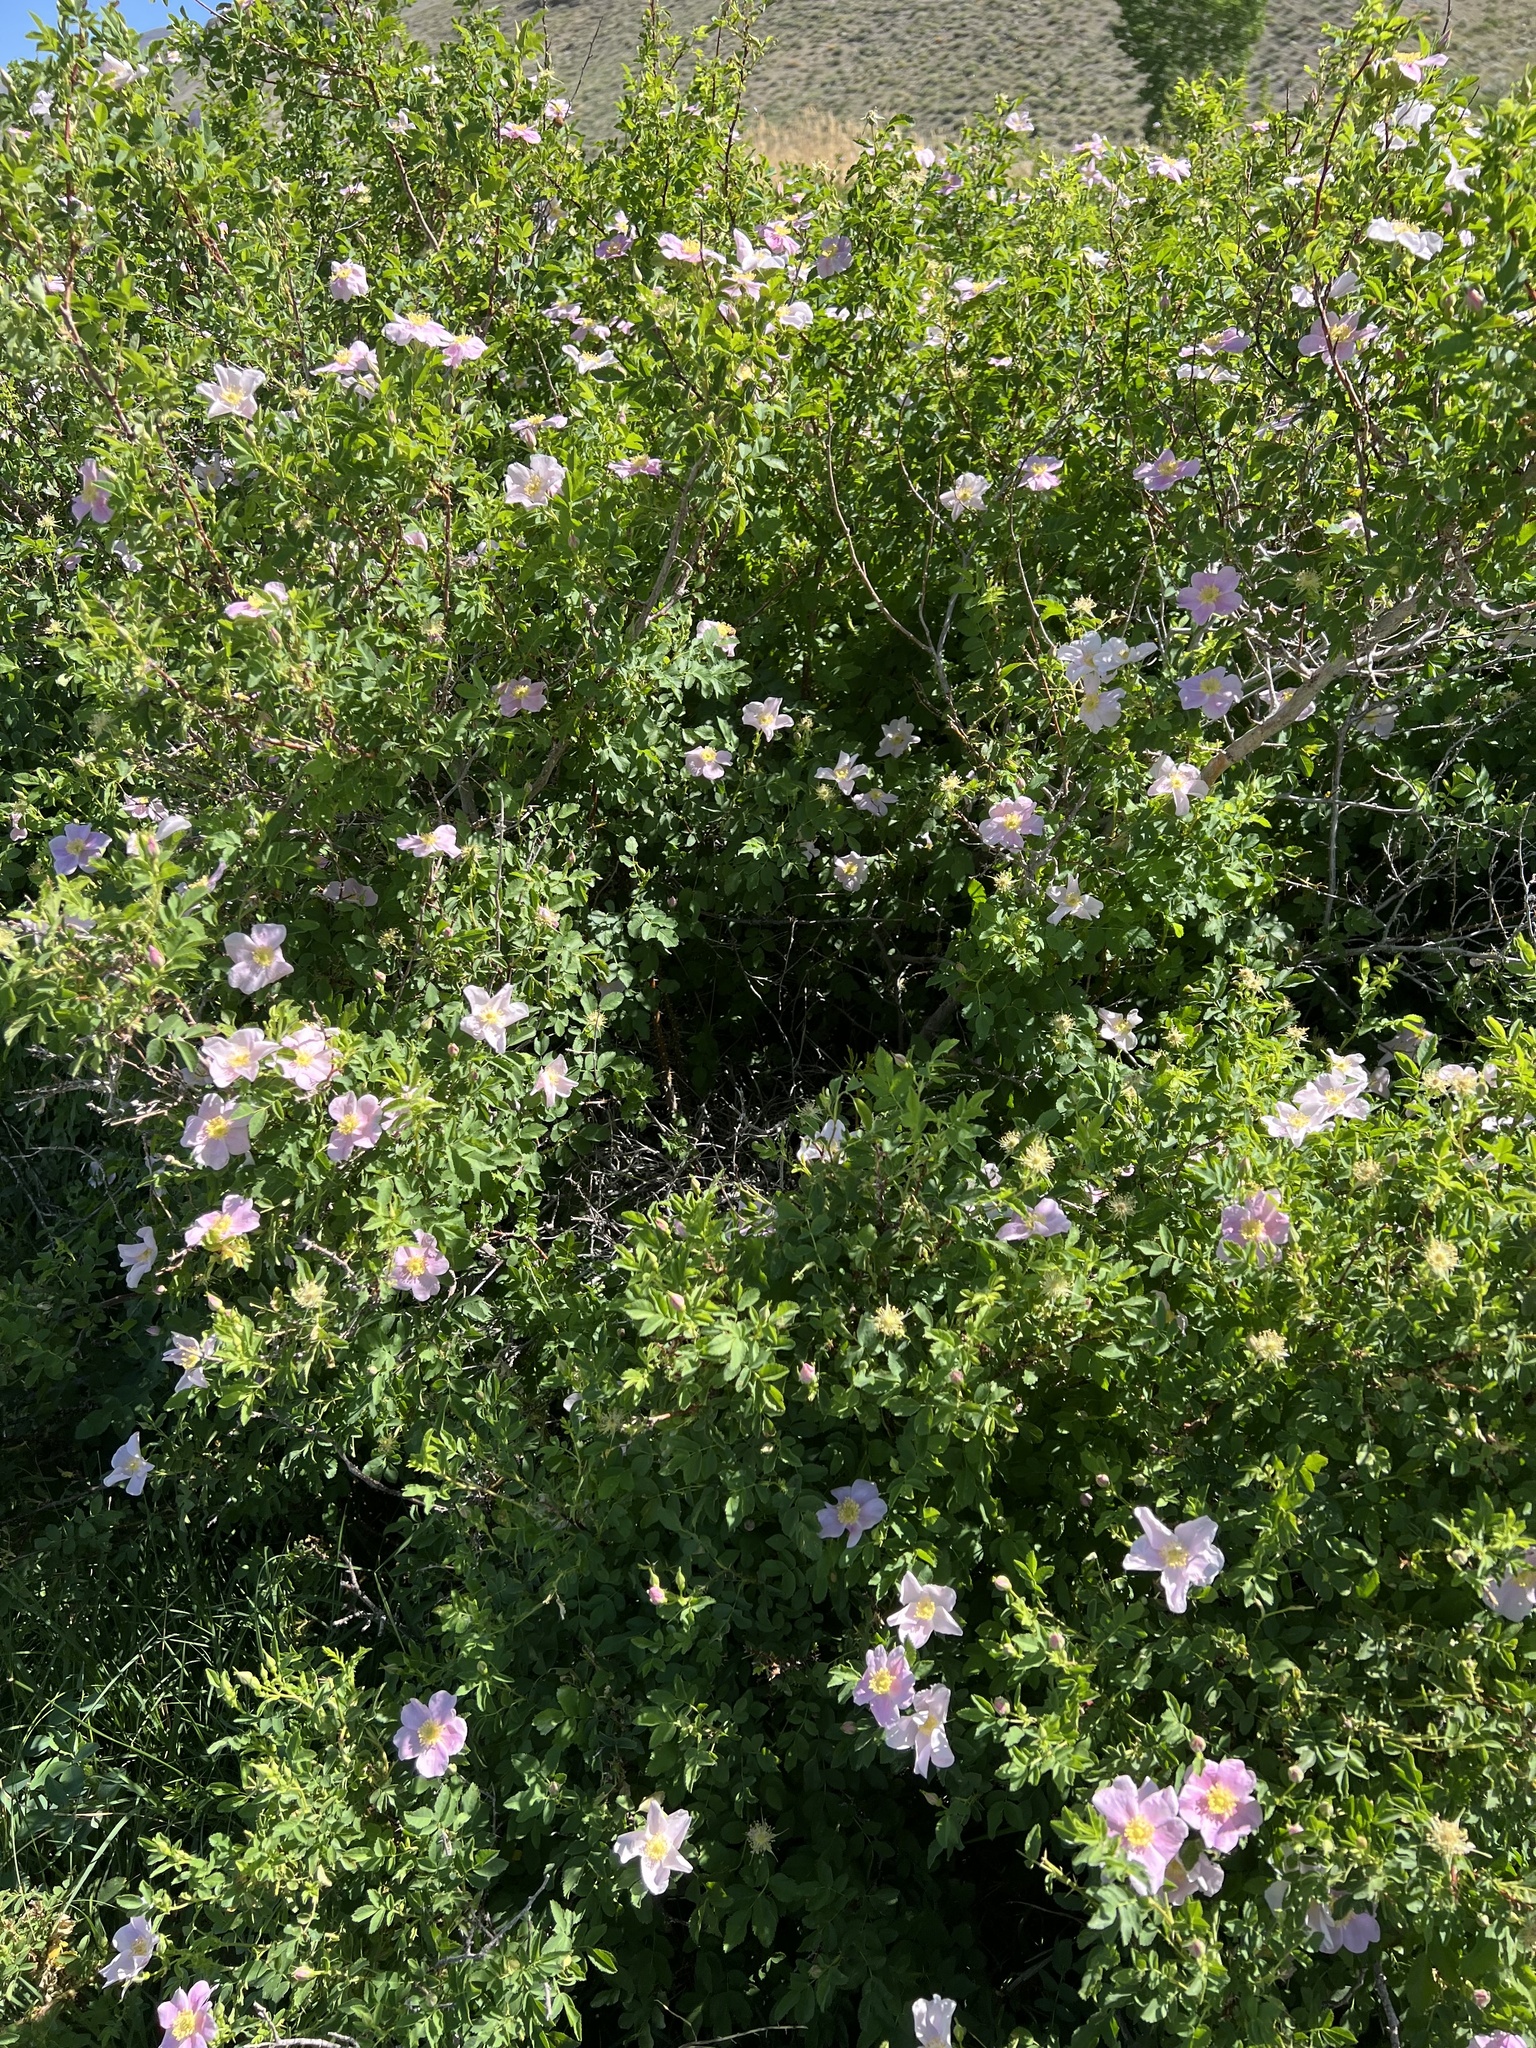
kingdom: Plantae
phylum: Tracheophyta
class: Magnoliopsida
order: Rosales
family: Rosaceae
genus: Rosa
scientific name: Rosa woodsii
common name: Woods's rose
